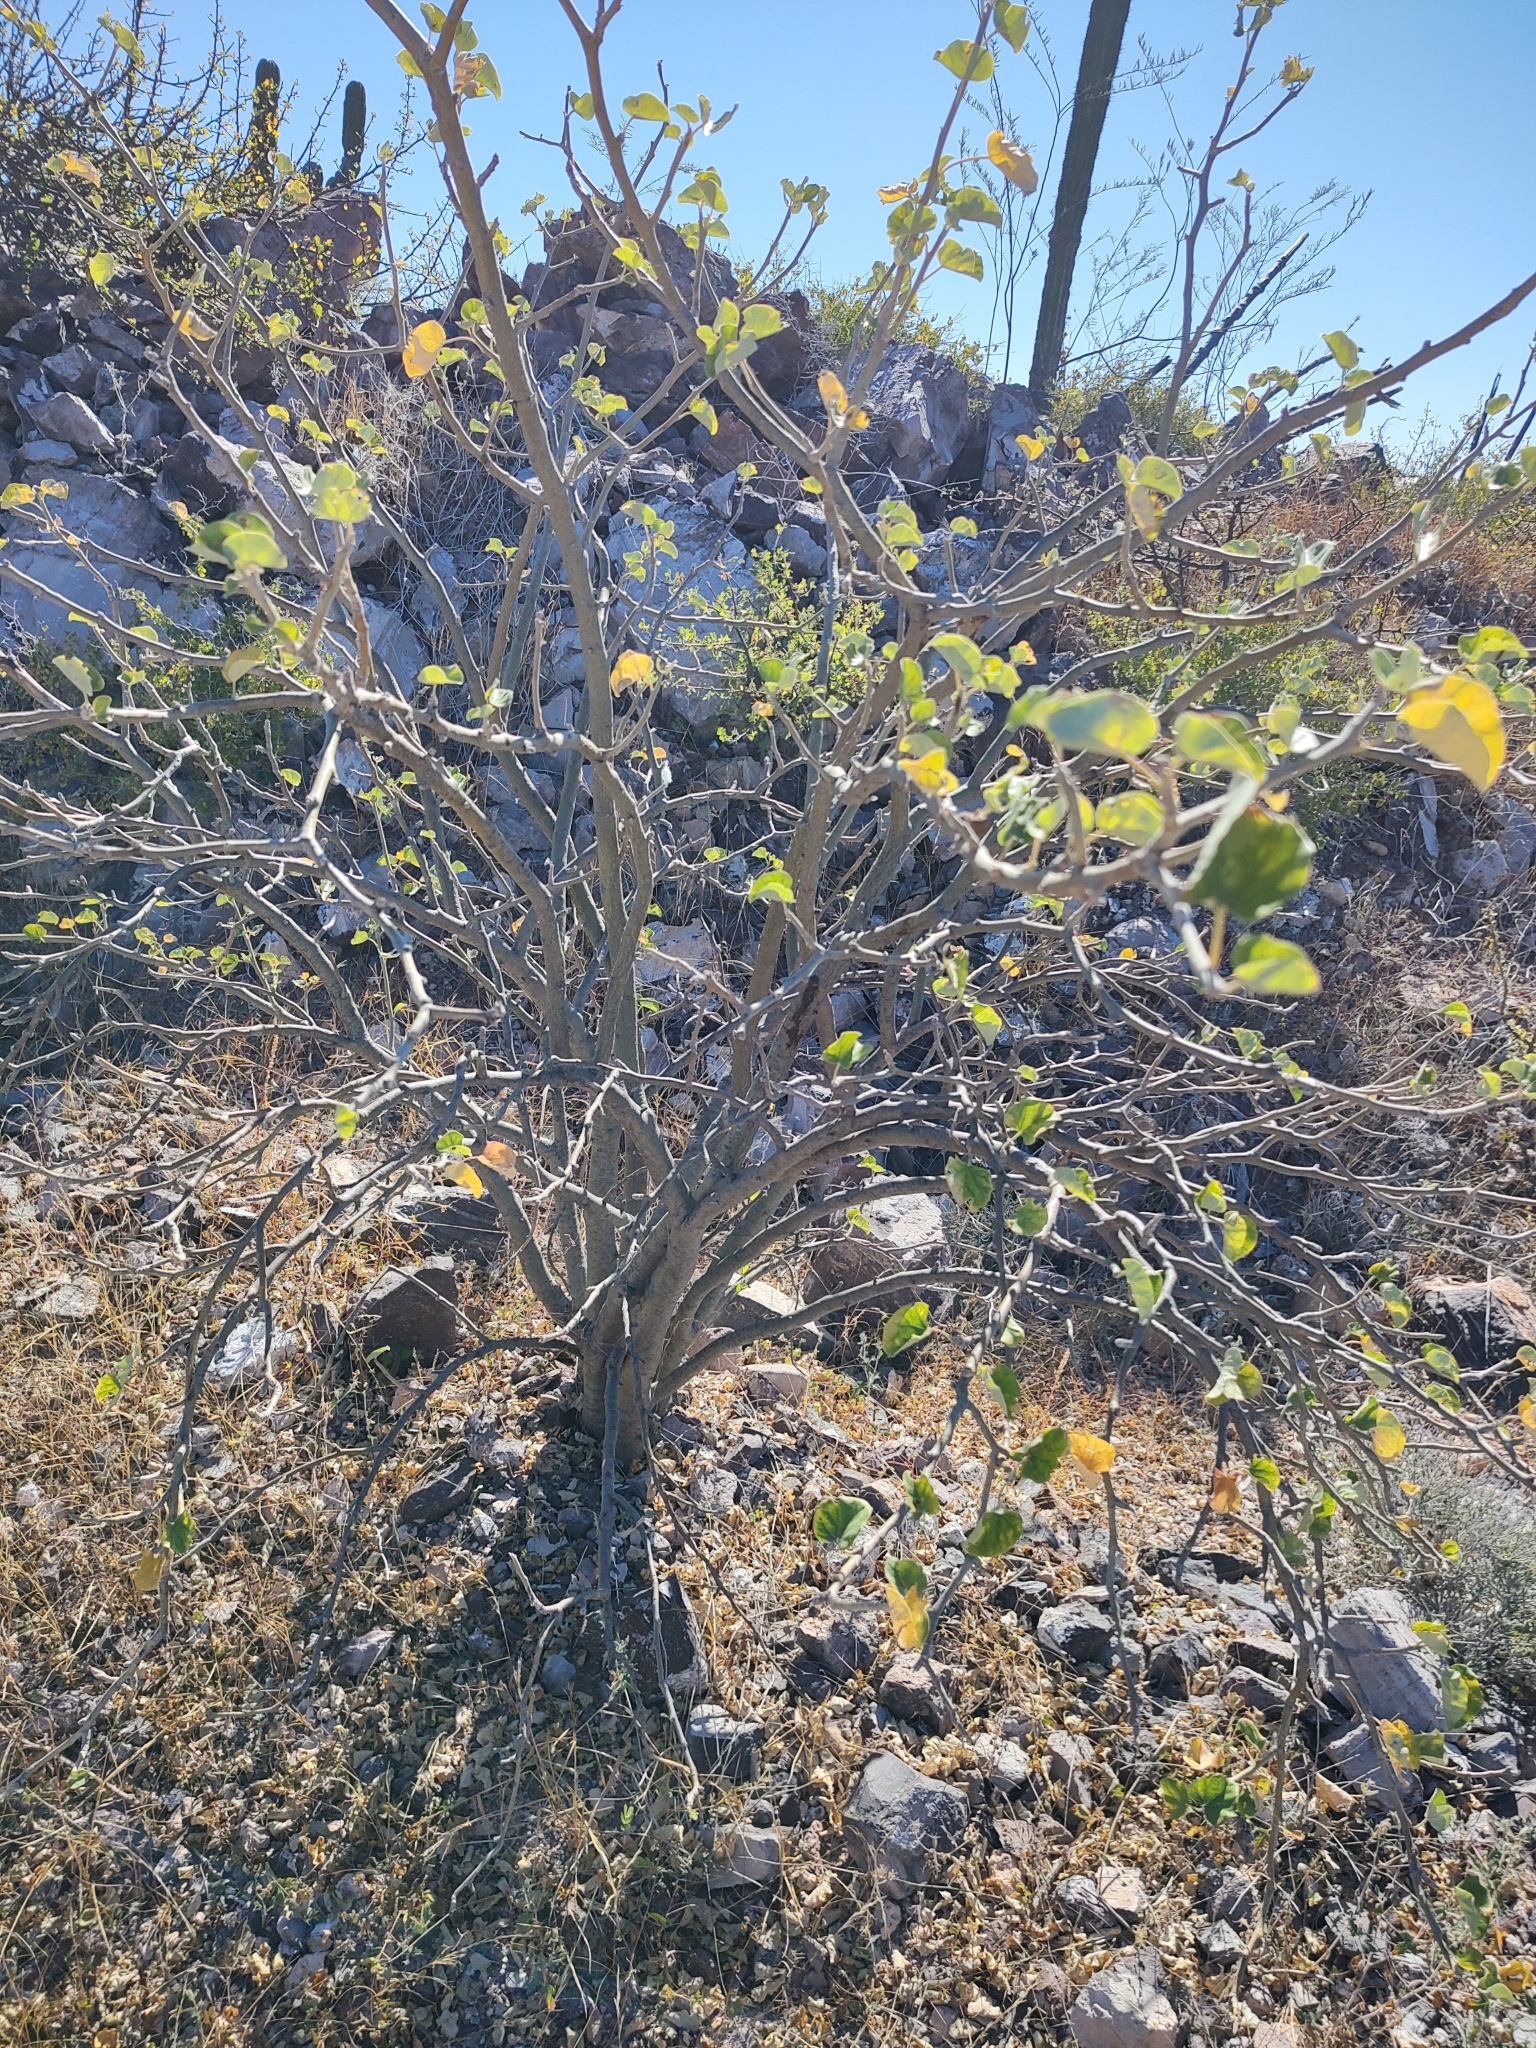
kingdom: Plantae
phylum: Tracheophyta
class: Magnoliopsida
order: Malpighiales
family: Euphorbiaceae
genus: Jatropha
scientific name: Jatropha cinerea
